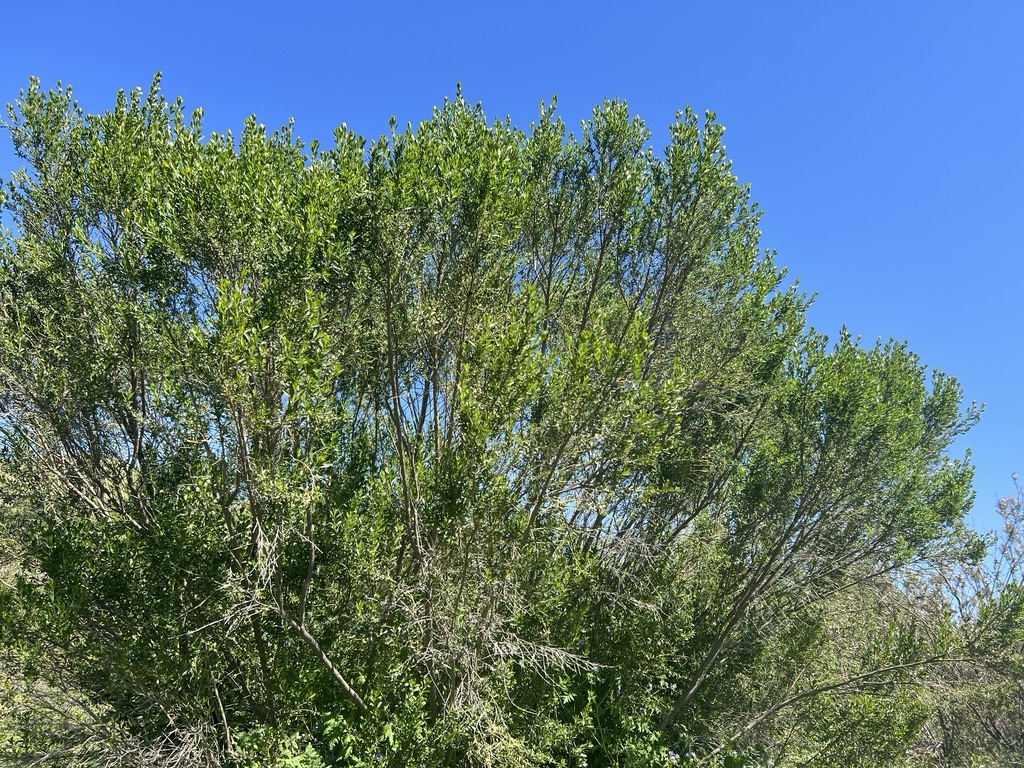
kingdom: Plantae
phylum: Tracheophyta
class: Magnoliopsida
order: Asterales
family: Asteraceae
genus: Baccharis
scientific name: Baccharis pilularis
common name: Coyotebrush
